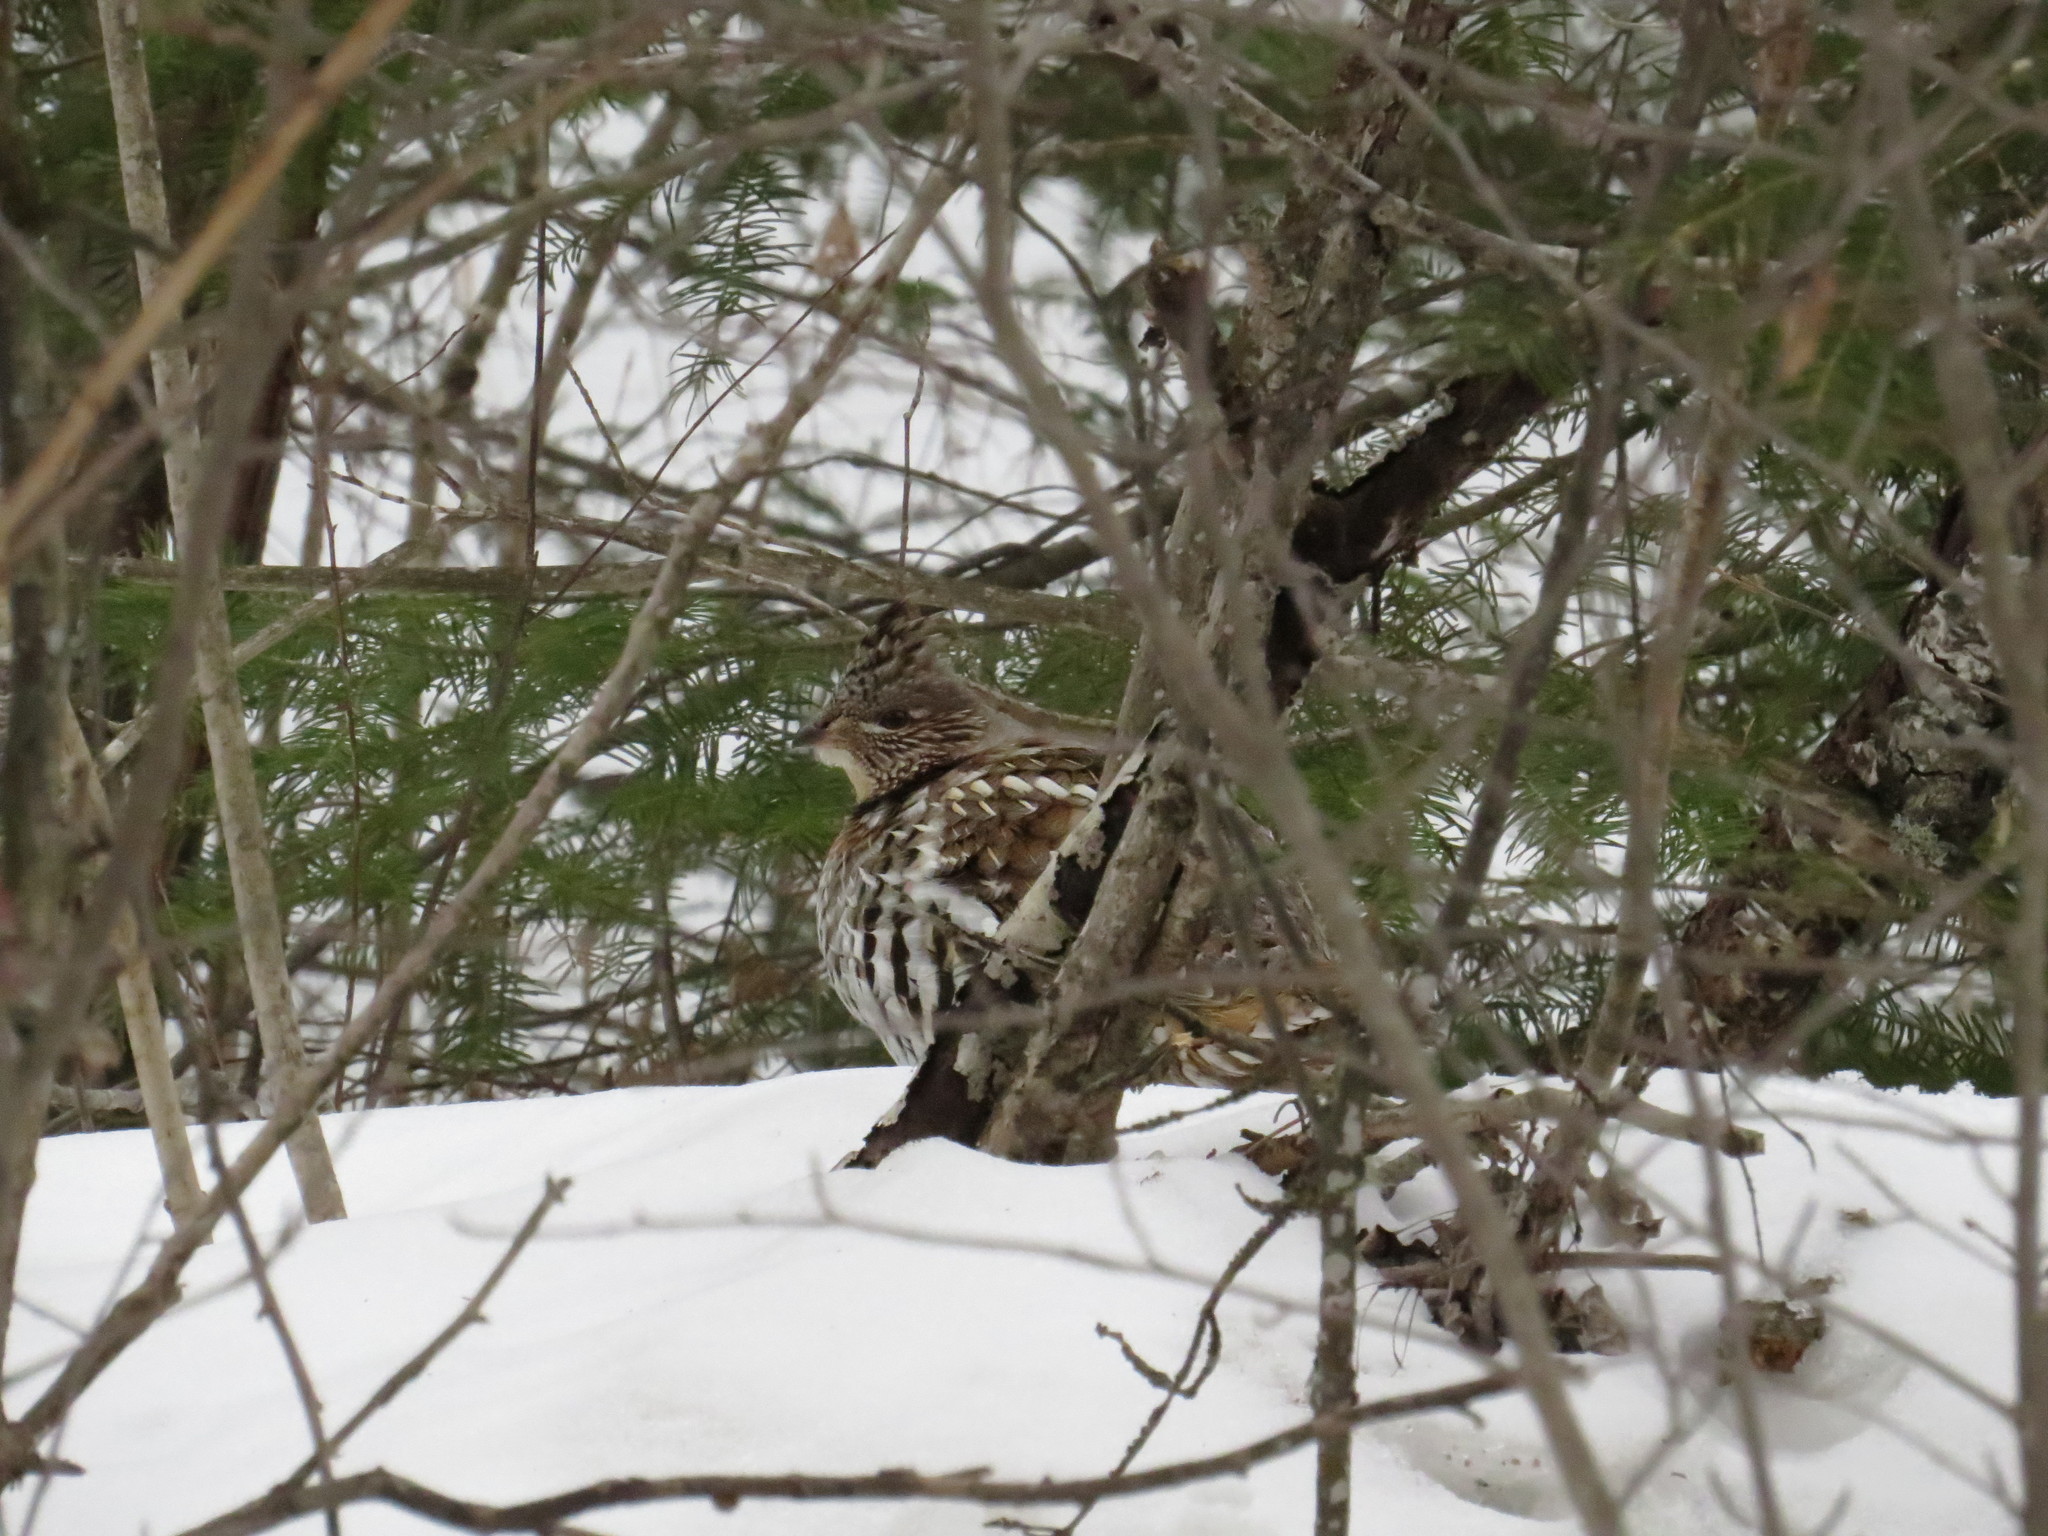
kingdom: Animalia
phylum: Chordata
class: Aves
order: Galliformes
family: Phasianidae
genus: Bonasa
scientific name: Bonasa umbellus
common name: Ruffed grouse
